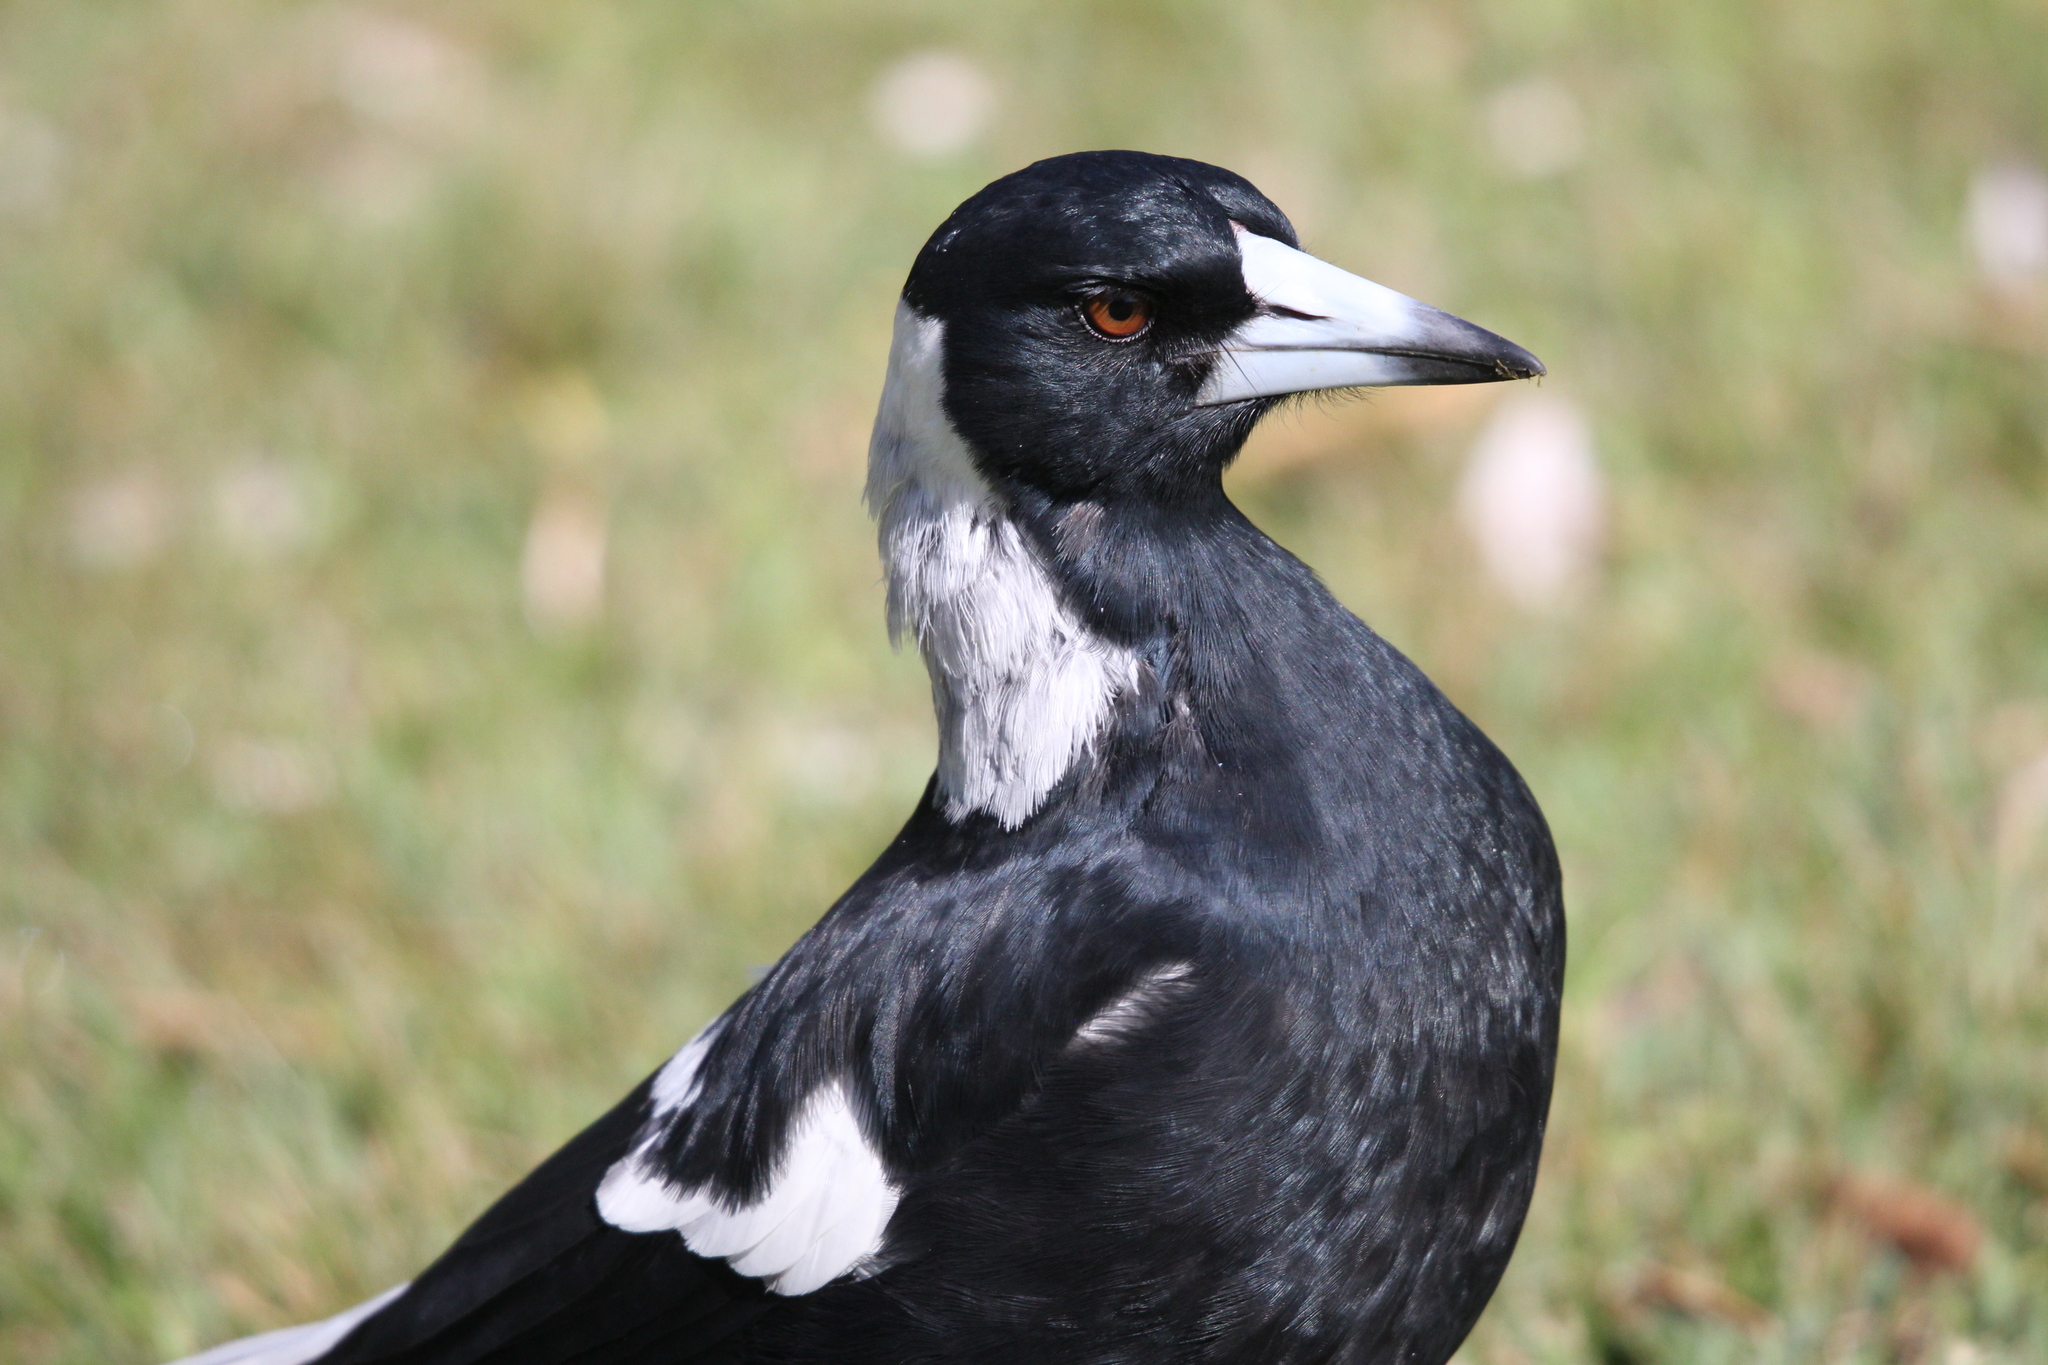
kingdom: Animalia
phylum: Chordata
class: Aves
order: Passeriformes
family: Cracticidae
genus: Gymnorhina
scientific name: Gymnorhina tibicen
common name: Australian magpie
